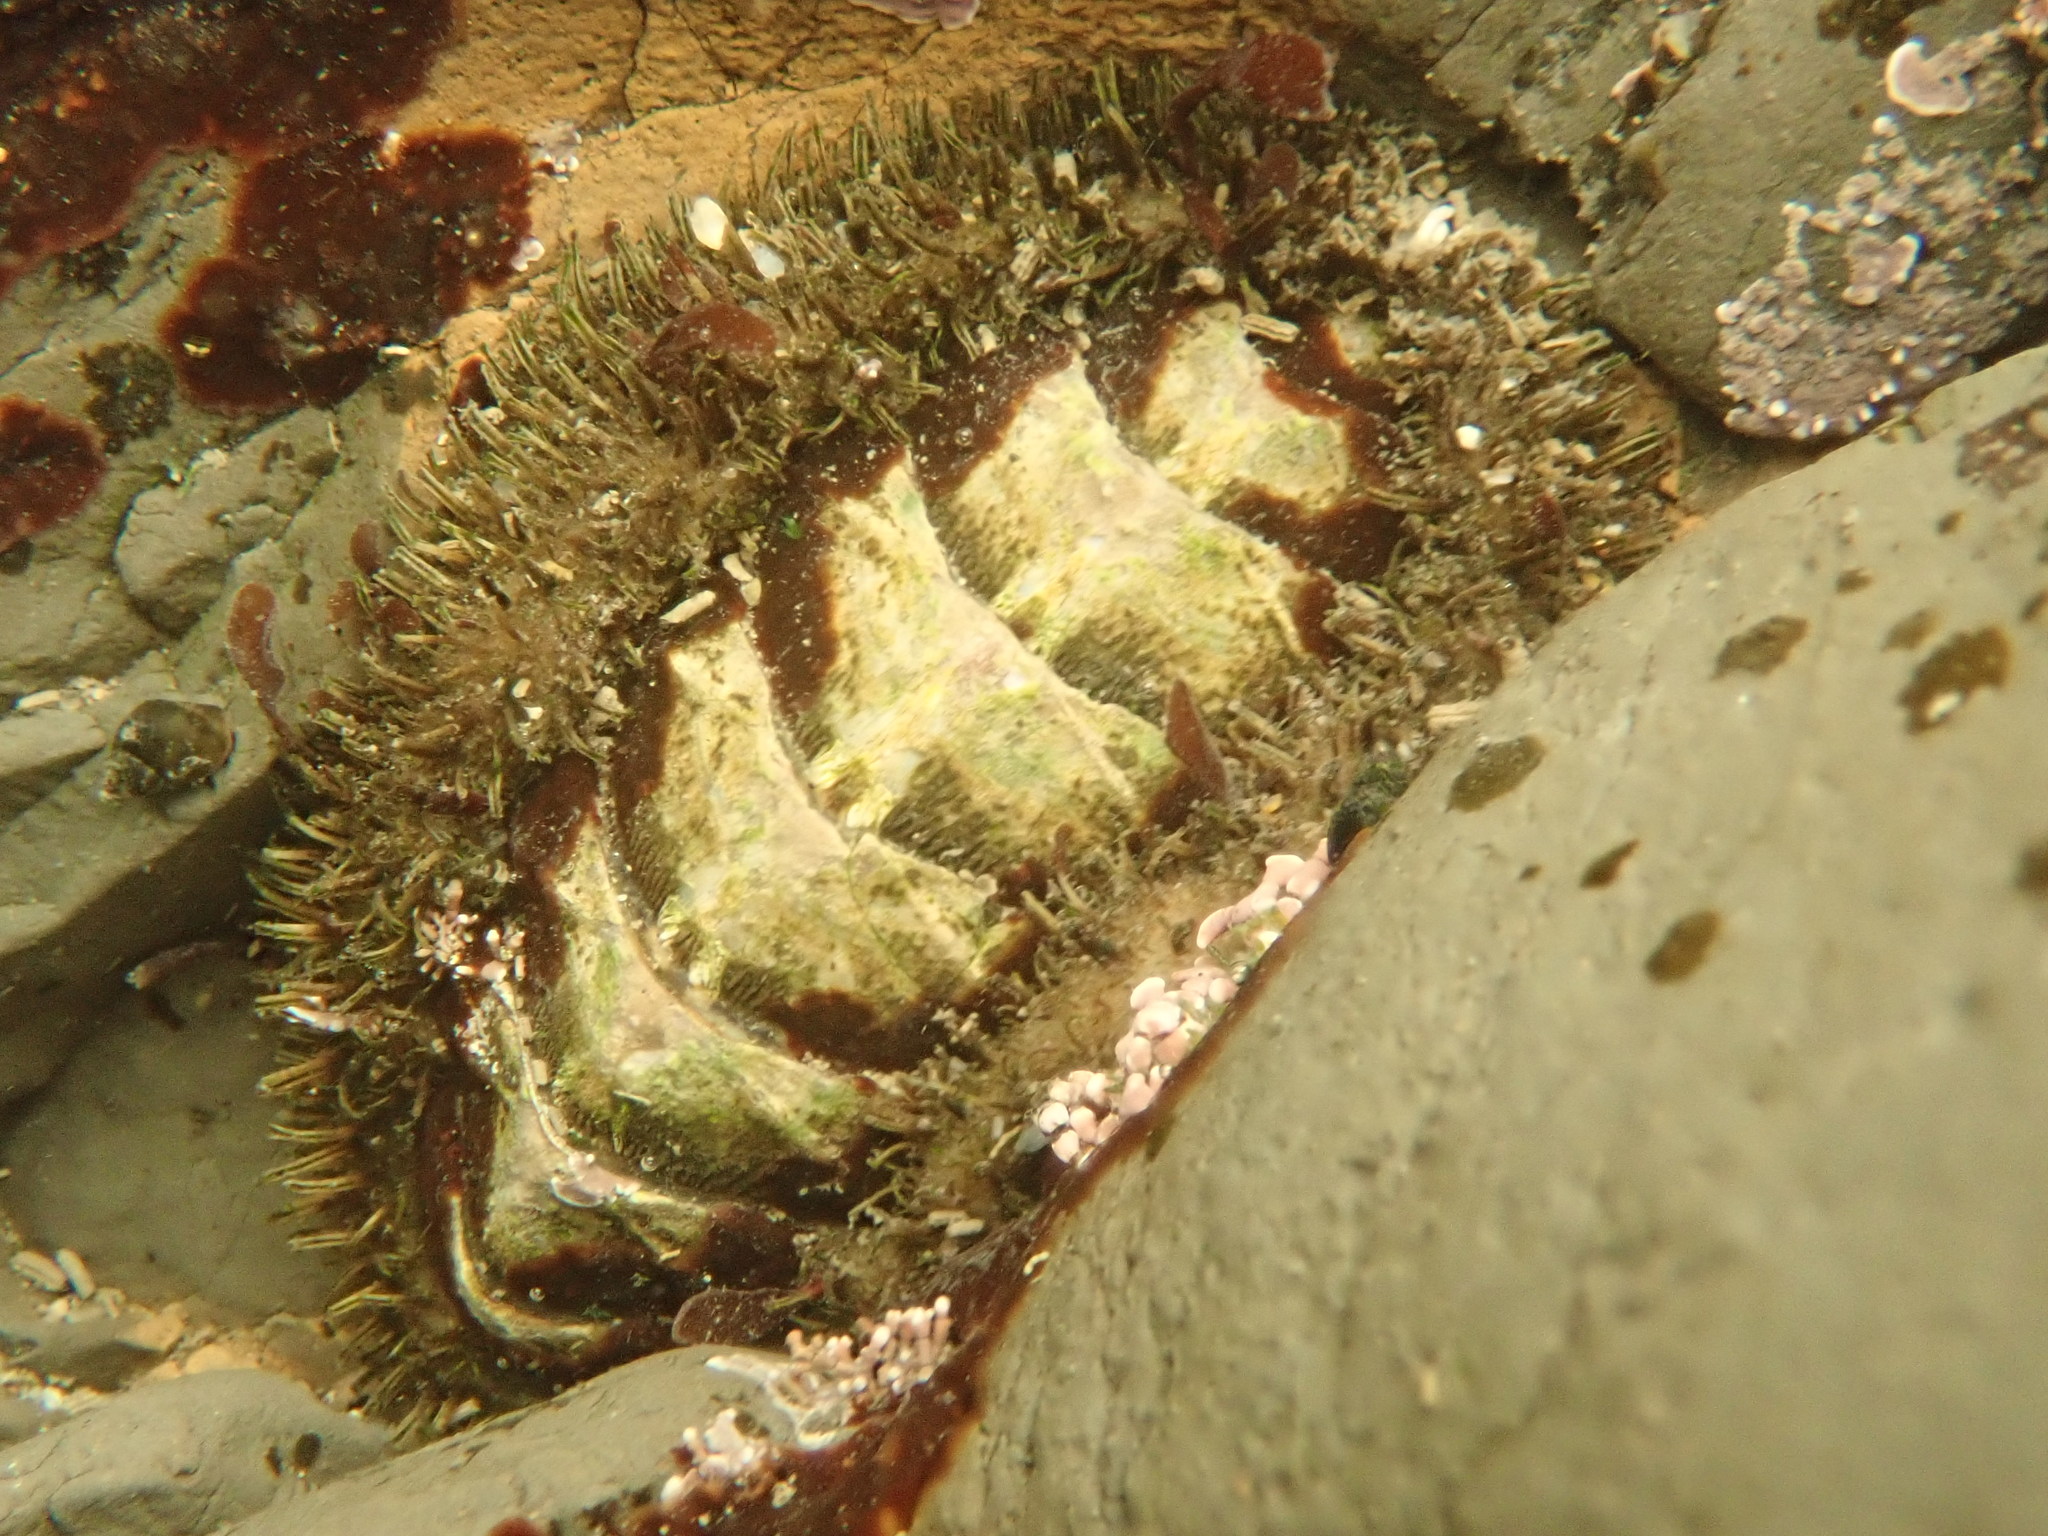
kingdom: Animalia
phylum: Mollusca
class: Polyplacophora
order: Chitonida
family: Mopaliidae
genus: Mopalia
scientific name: Mopalia muscosa
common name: Mossy chiton
